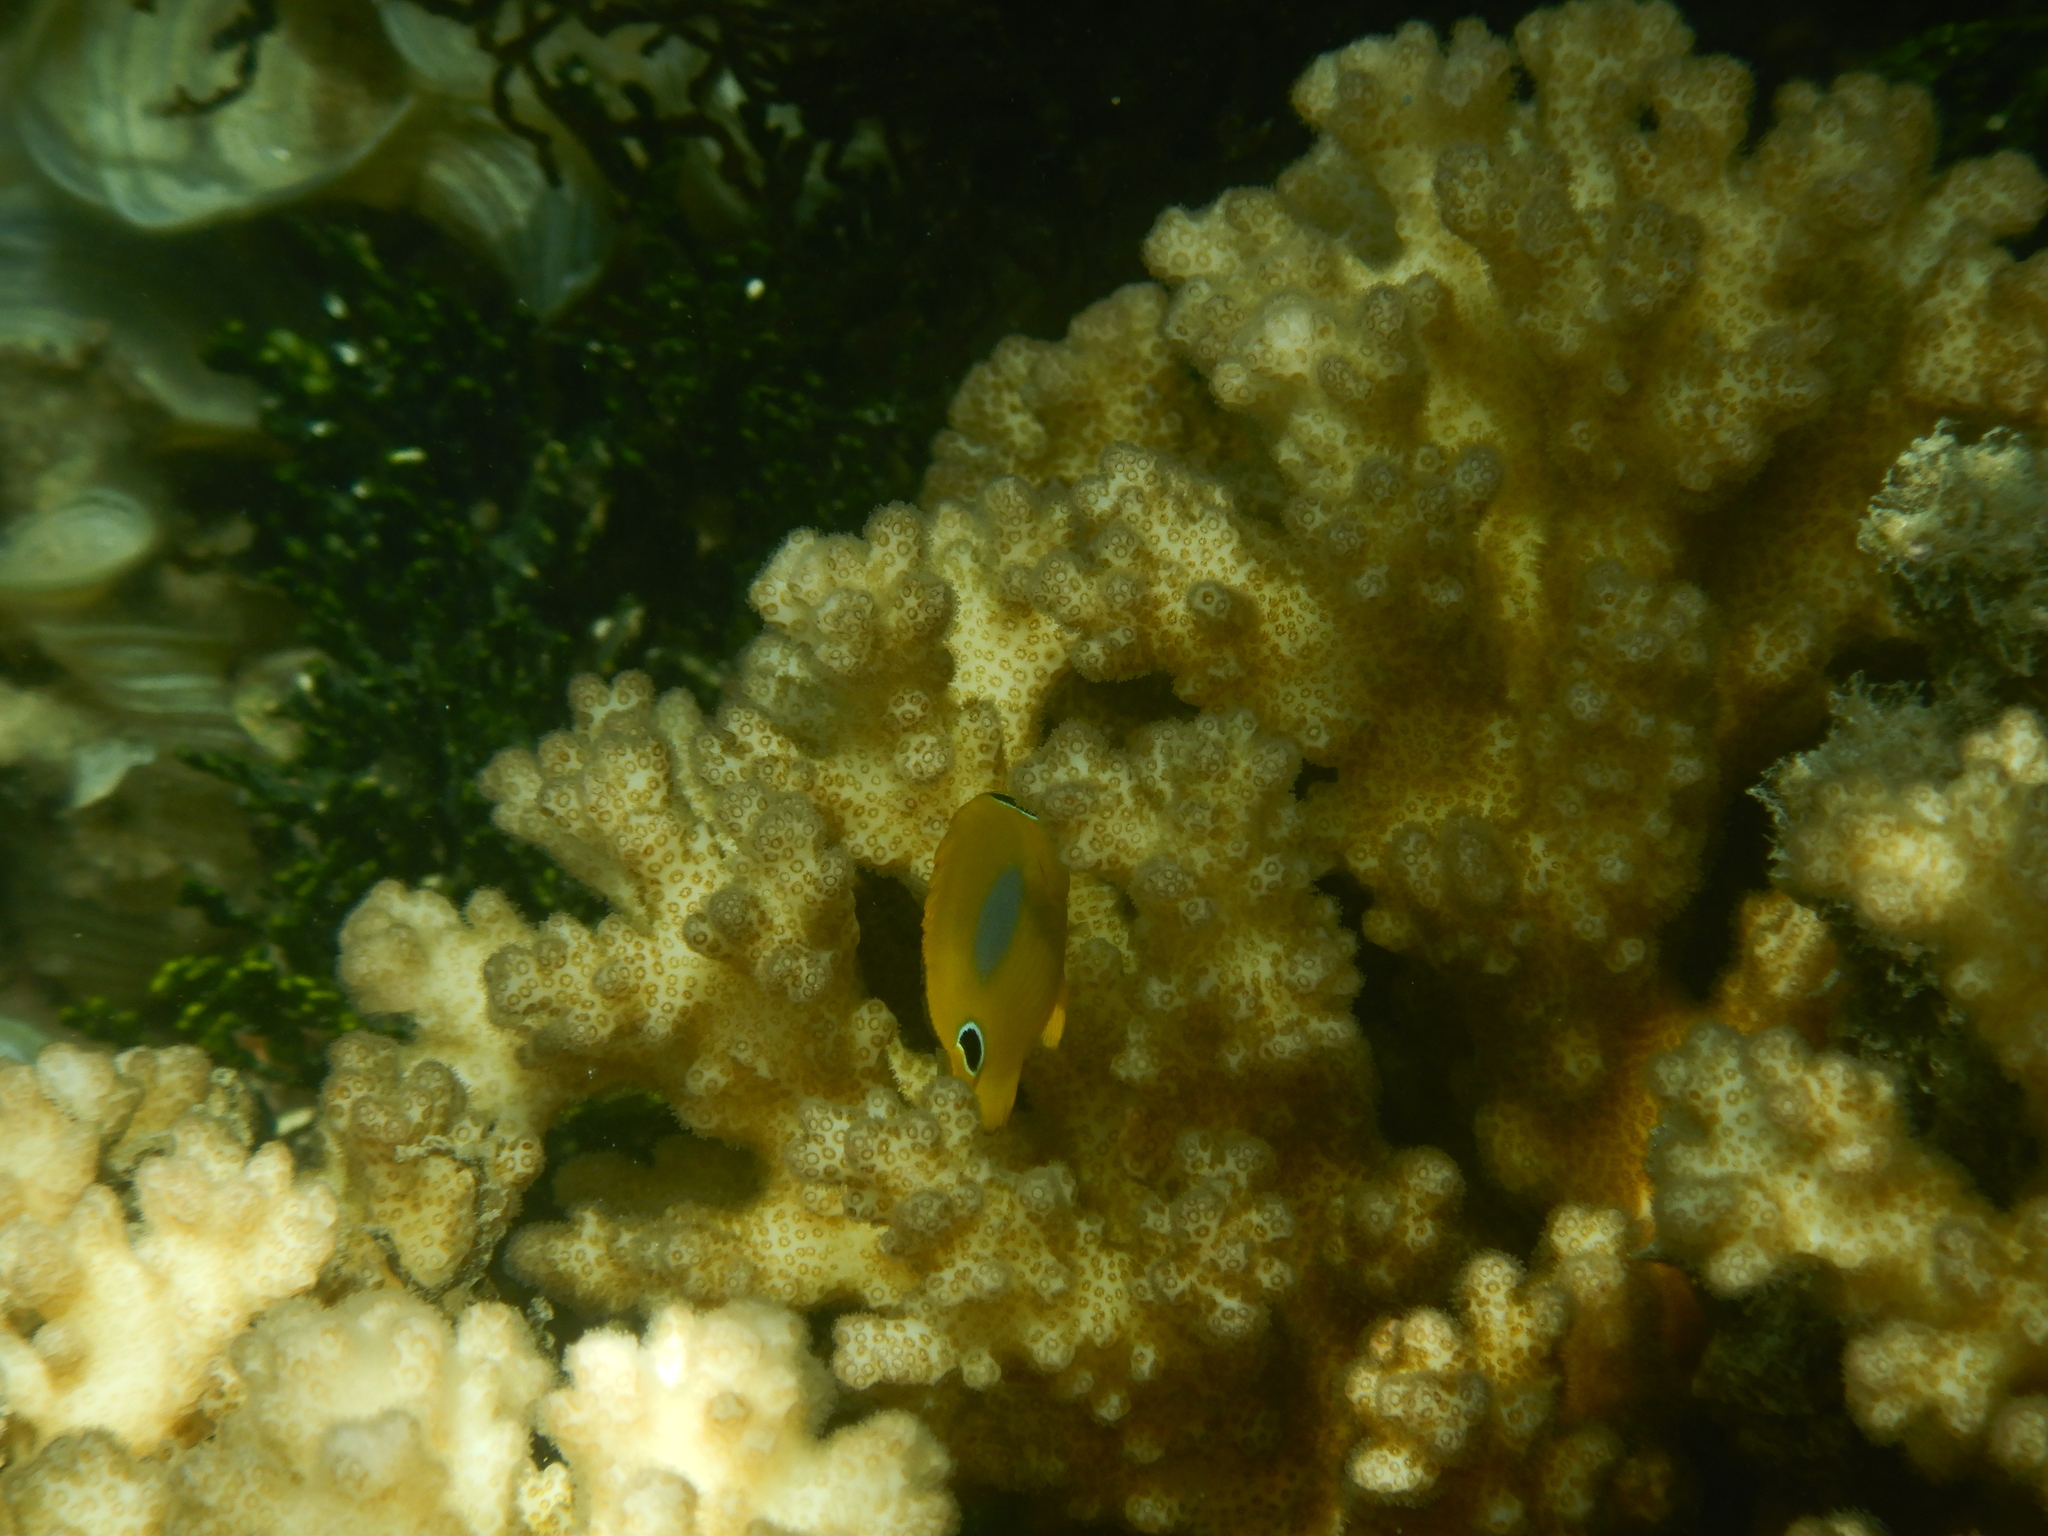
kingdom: Animalia
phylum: Chordata
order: Perciformes
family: Chaetodontidae
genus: Chaetodon
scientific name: Chaetodon plebeius
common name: Bluespot butterflyfish
